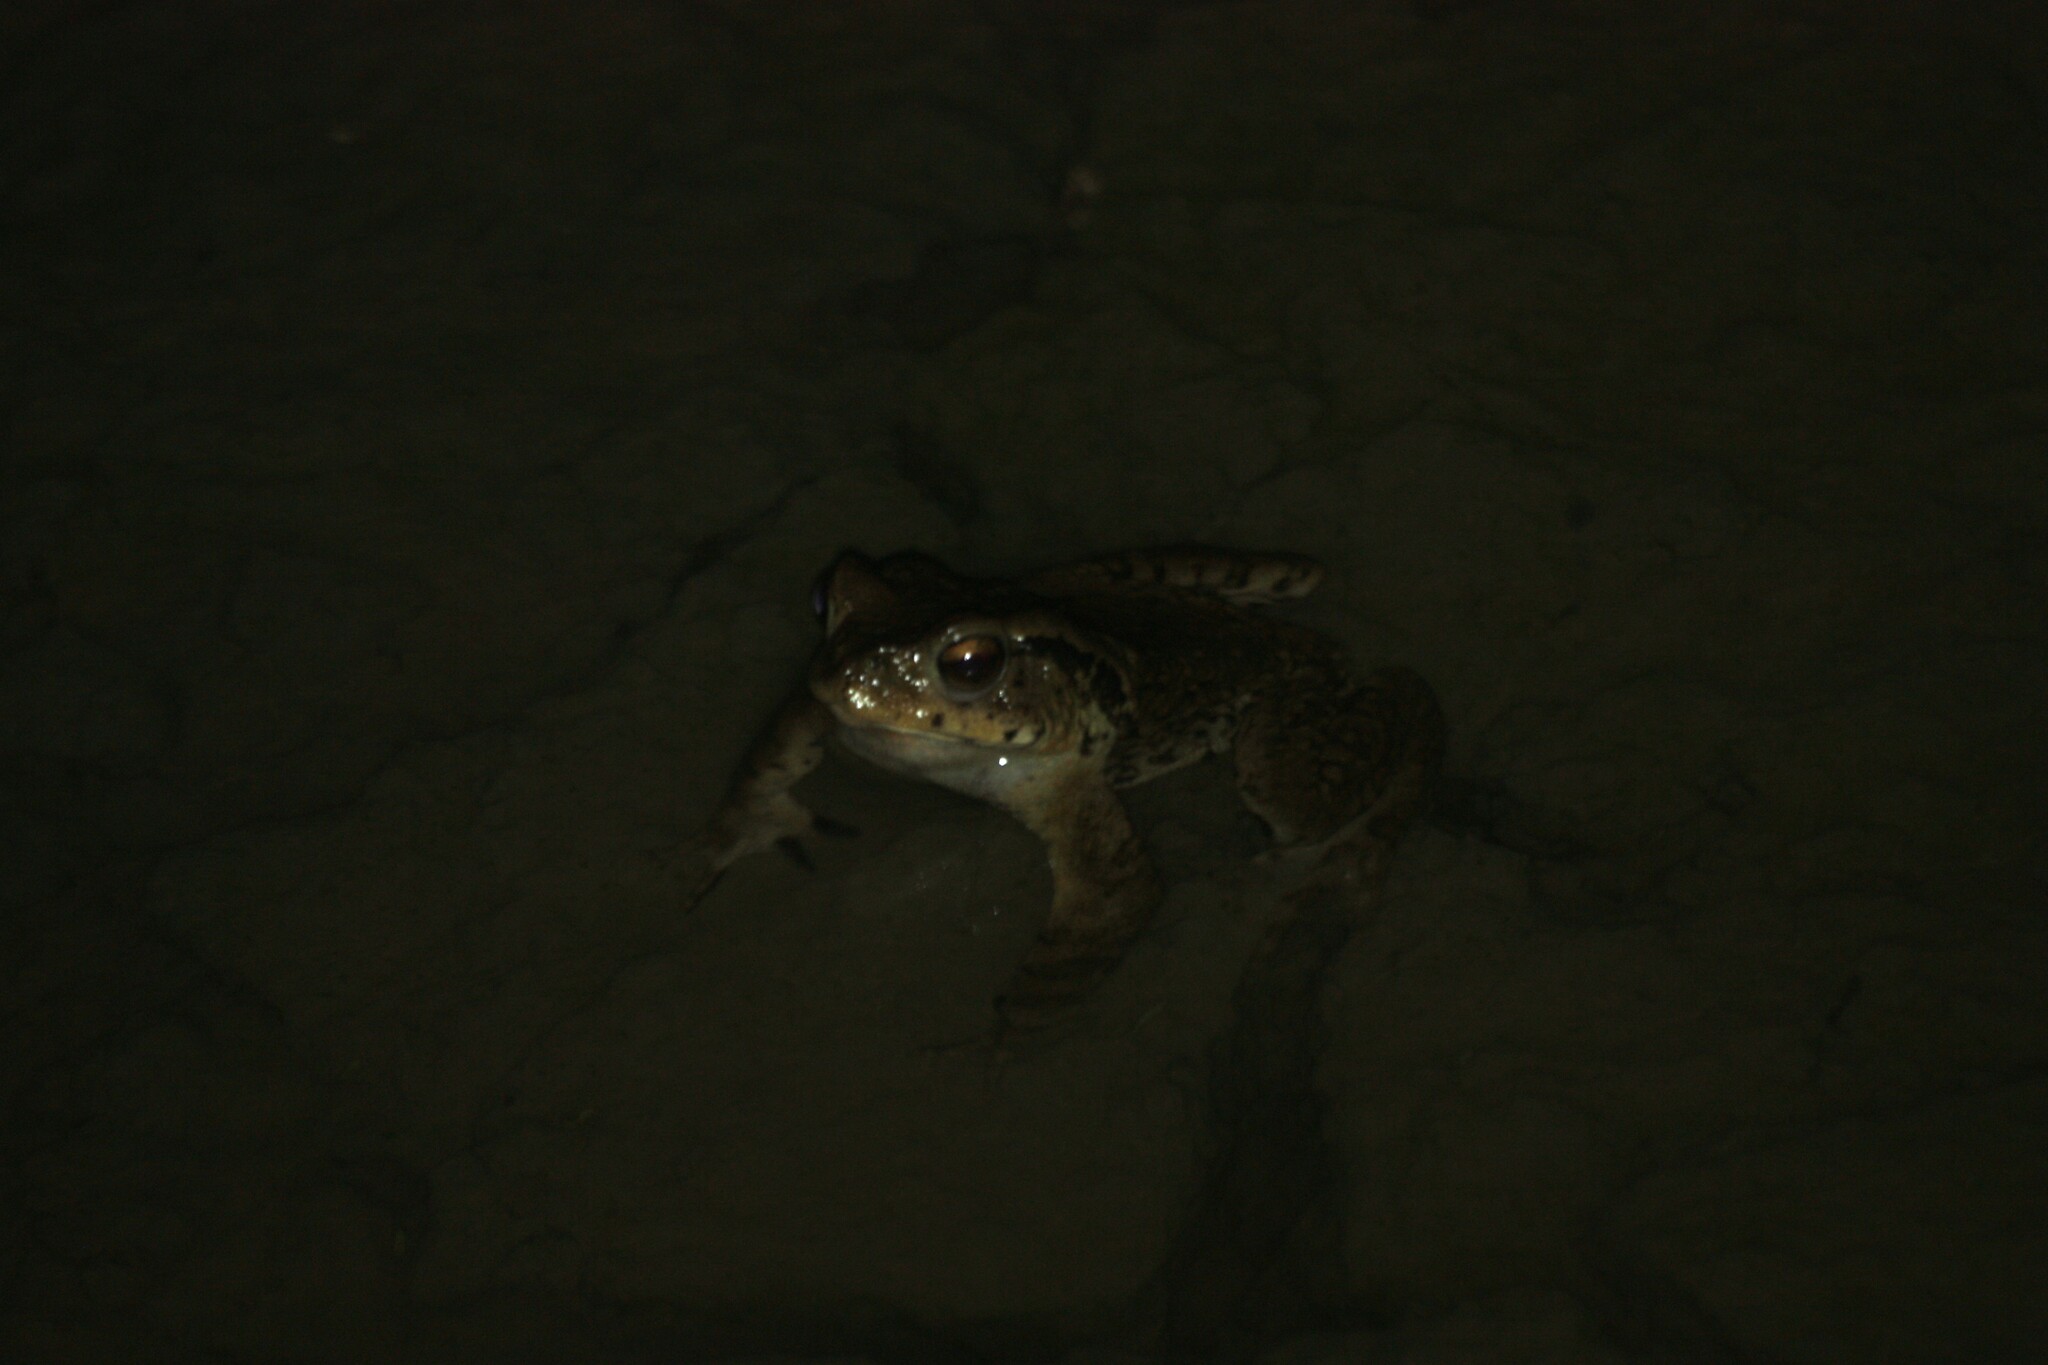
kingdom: Animalia
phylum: Chordata
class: Amphibia
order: Anura
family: Bufonidae
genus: Bufo
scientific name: Bufo bankorensis
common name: Bankor toad
